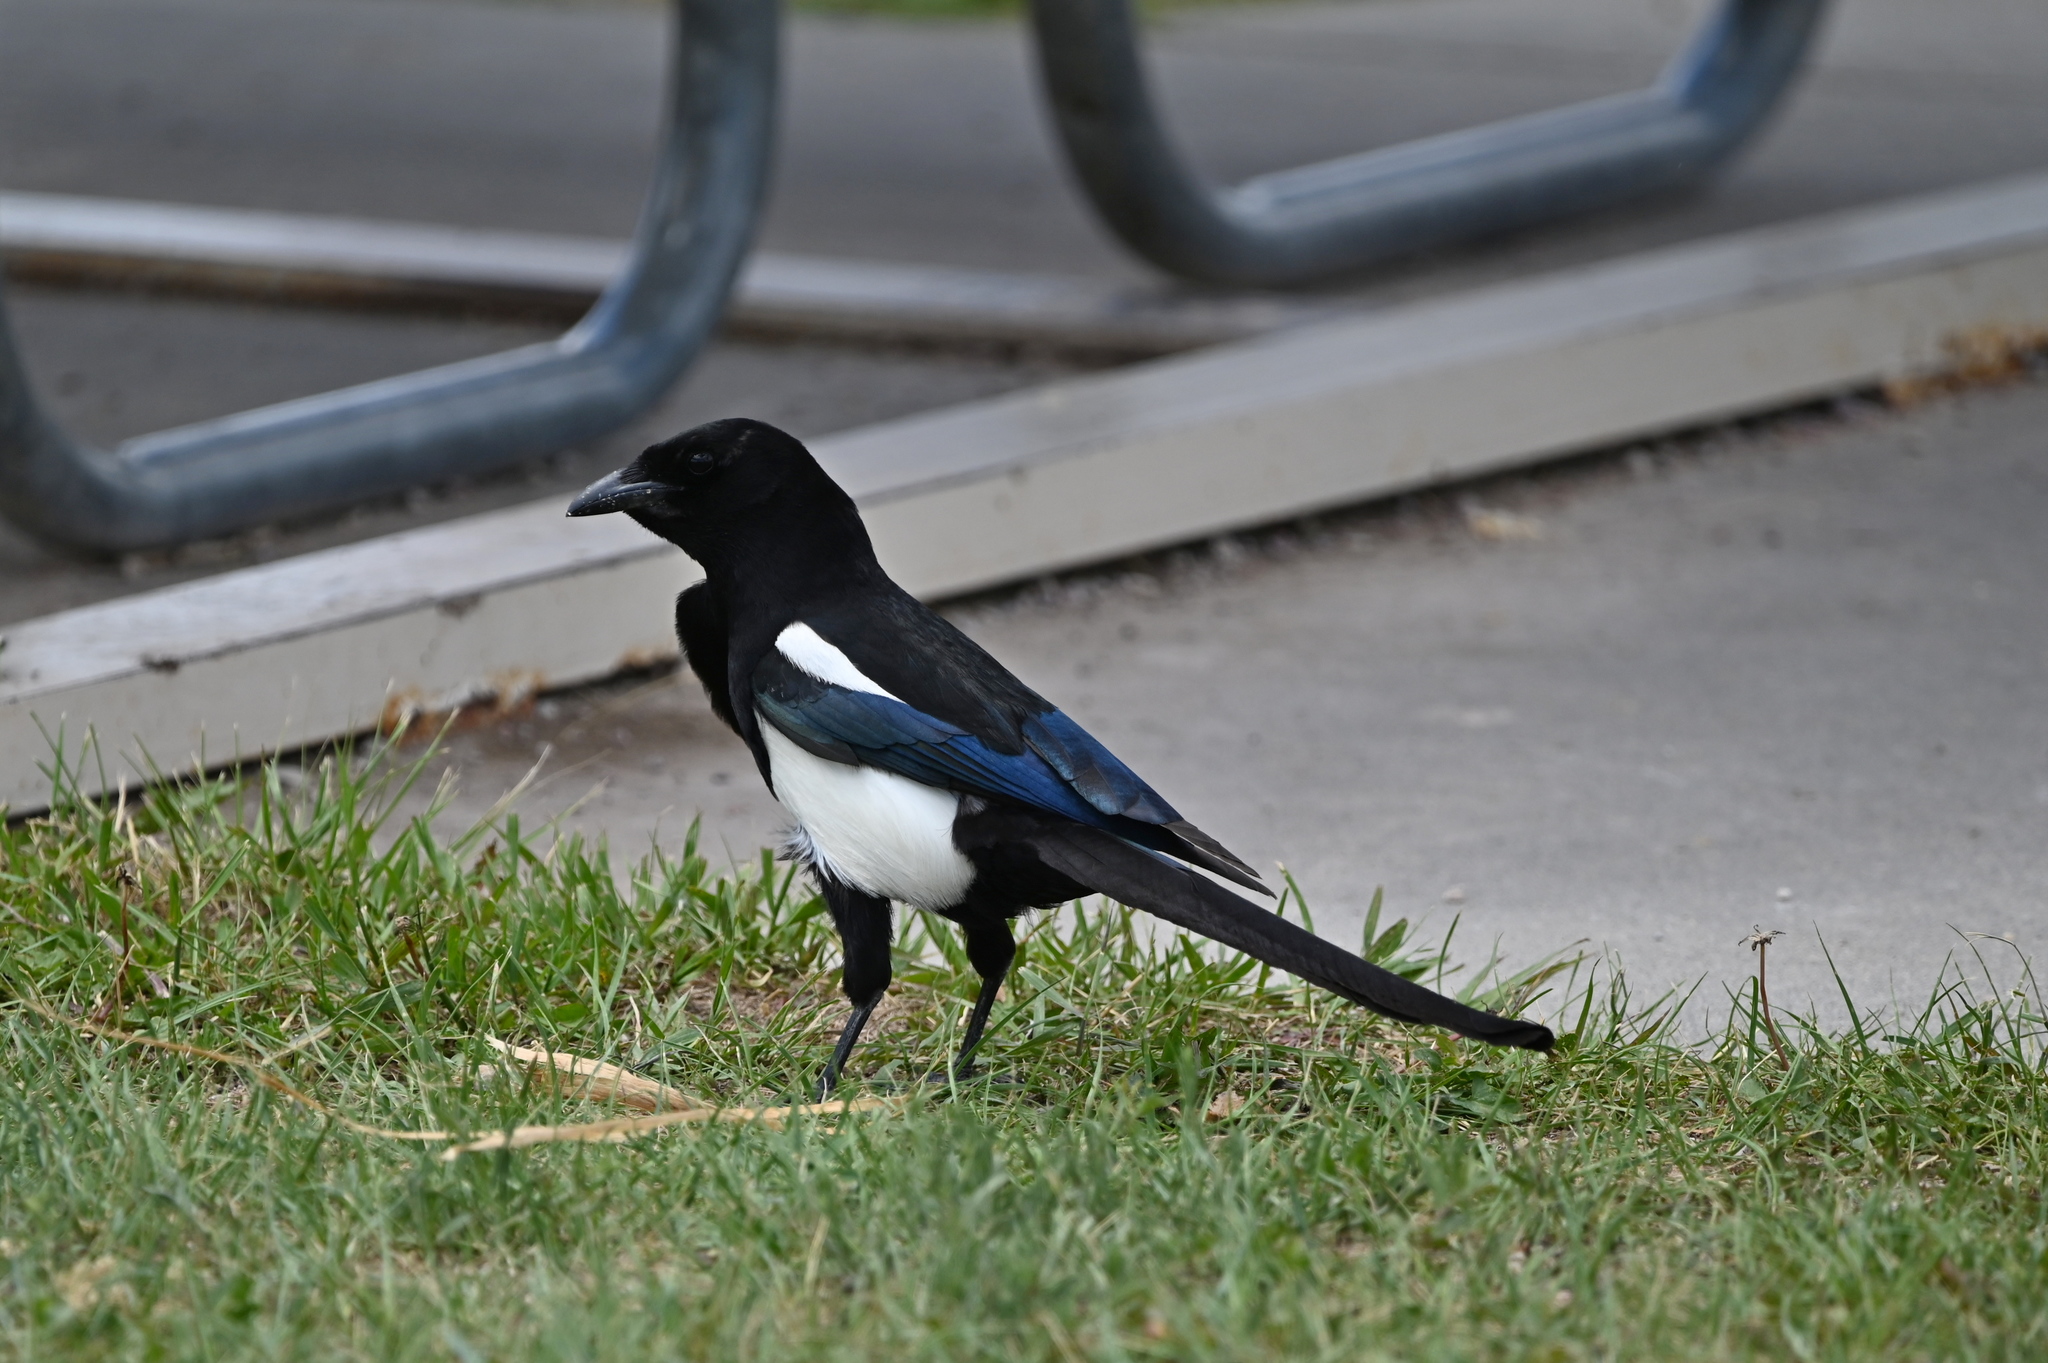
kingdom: Animalia
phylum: Chordata
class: Aves
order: Passeriformes
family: Corvidae
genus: Pica
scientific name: Pica hudsonia
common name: Black-billed magpie
